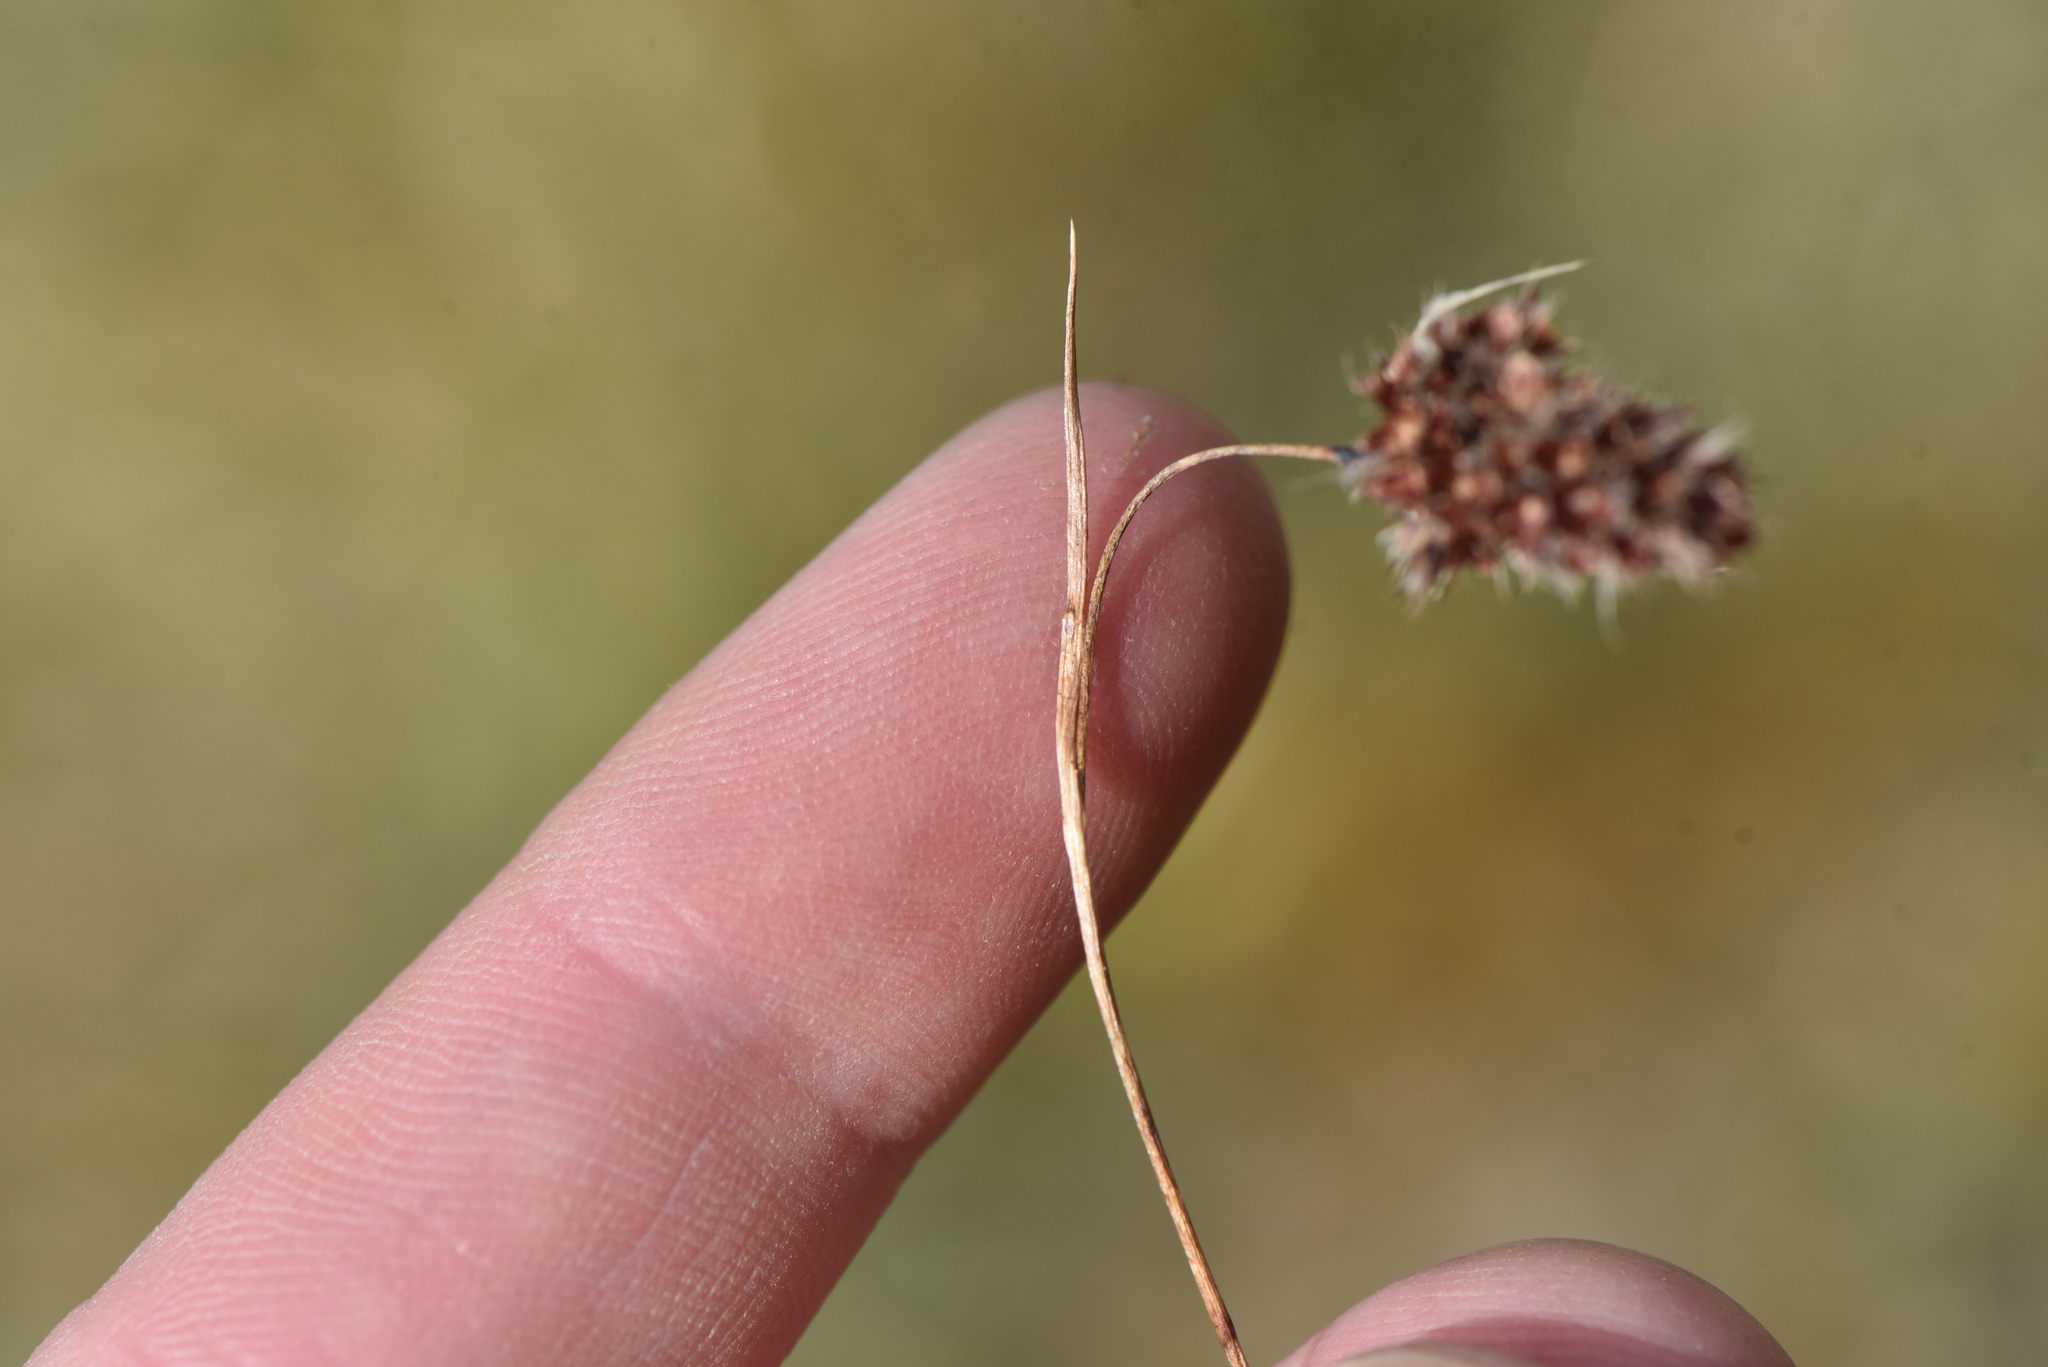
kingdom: Plantae
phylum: Tracheophyta
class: Liliopsida
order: Poales
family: Juncaceae
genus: Luzula
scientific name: Luzula spicata
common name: Spiked wood-rush
